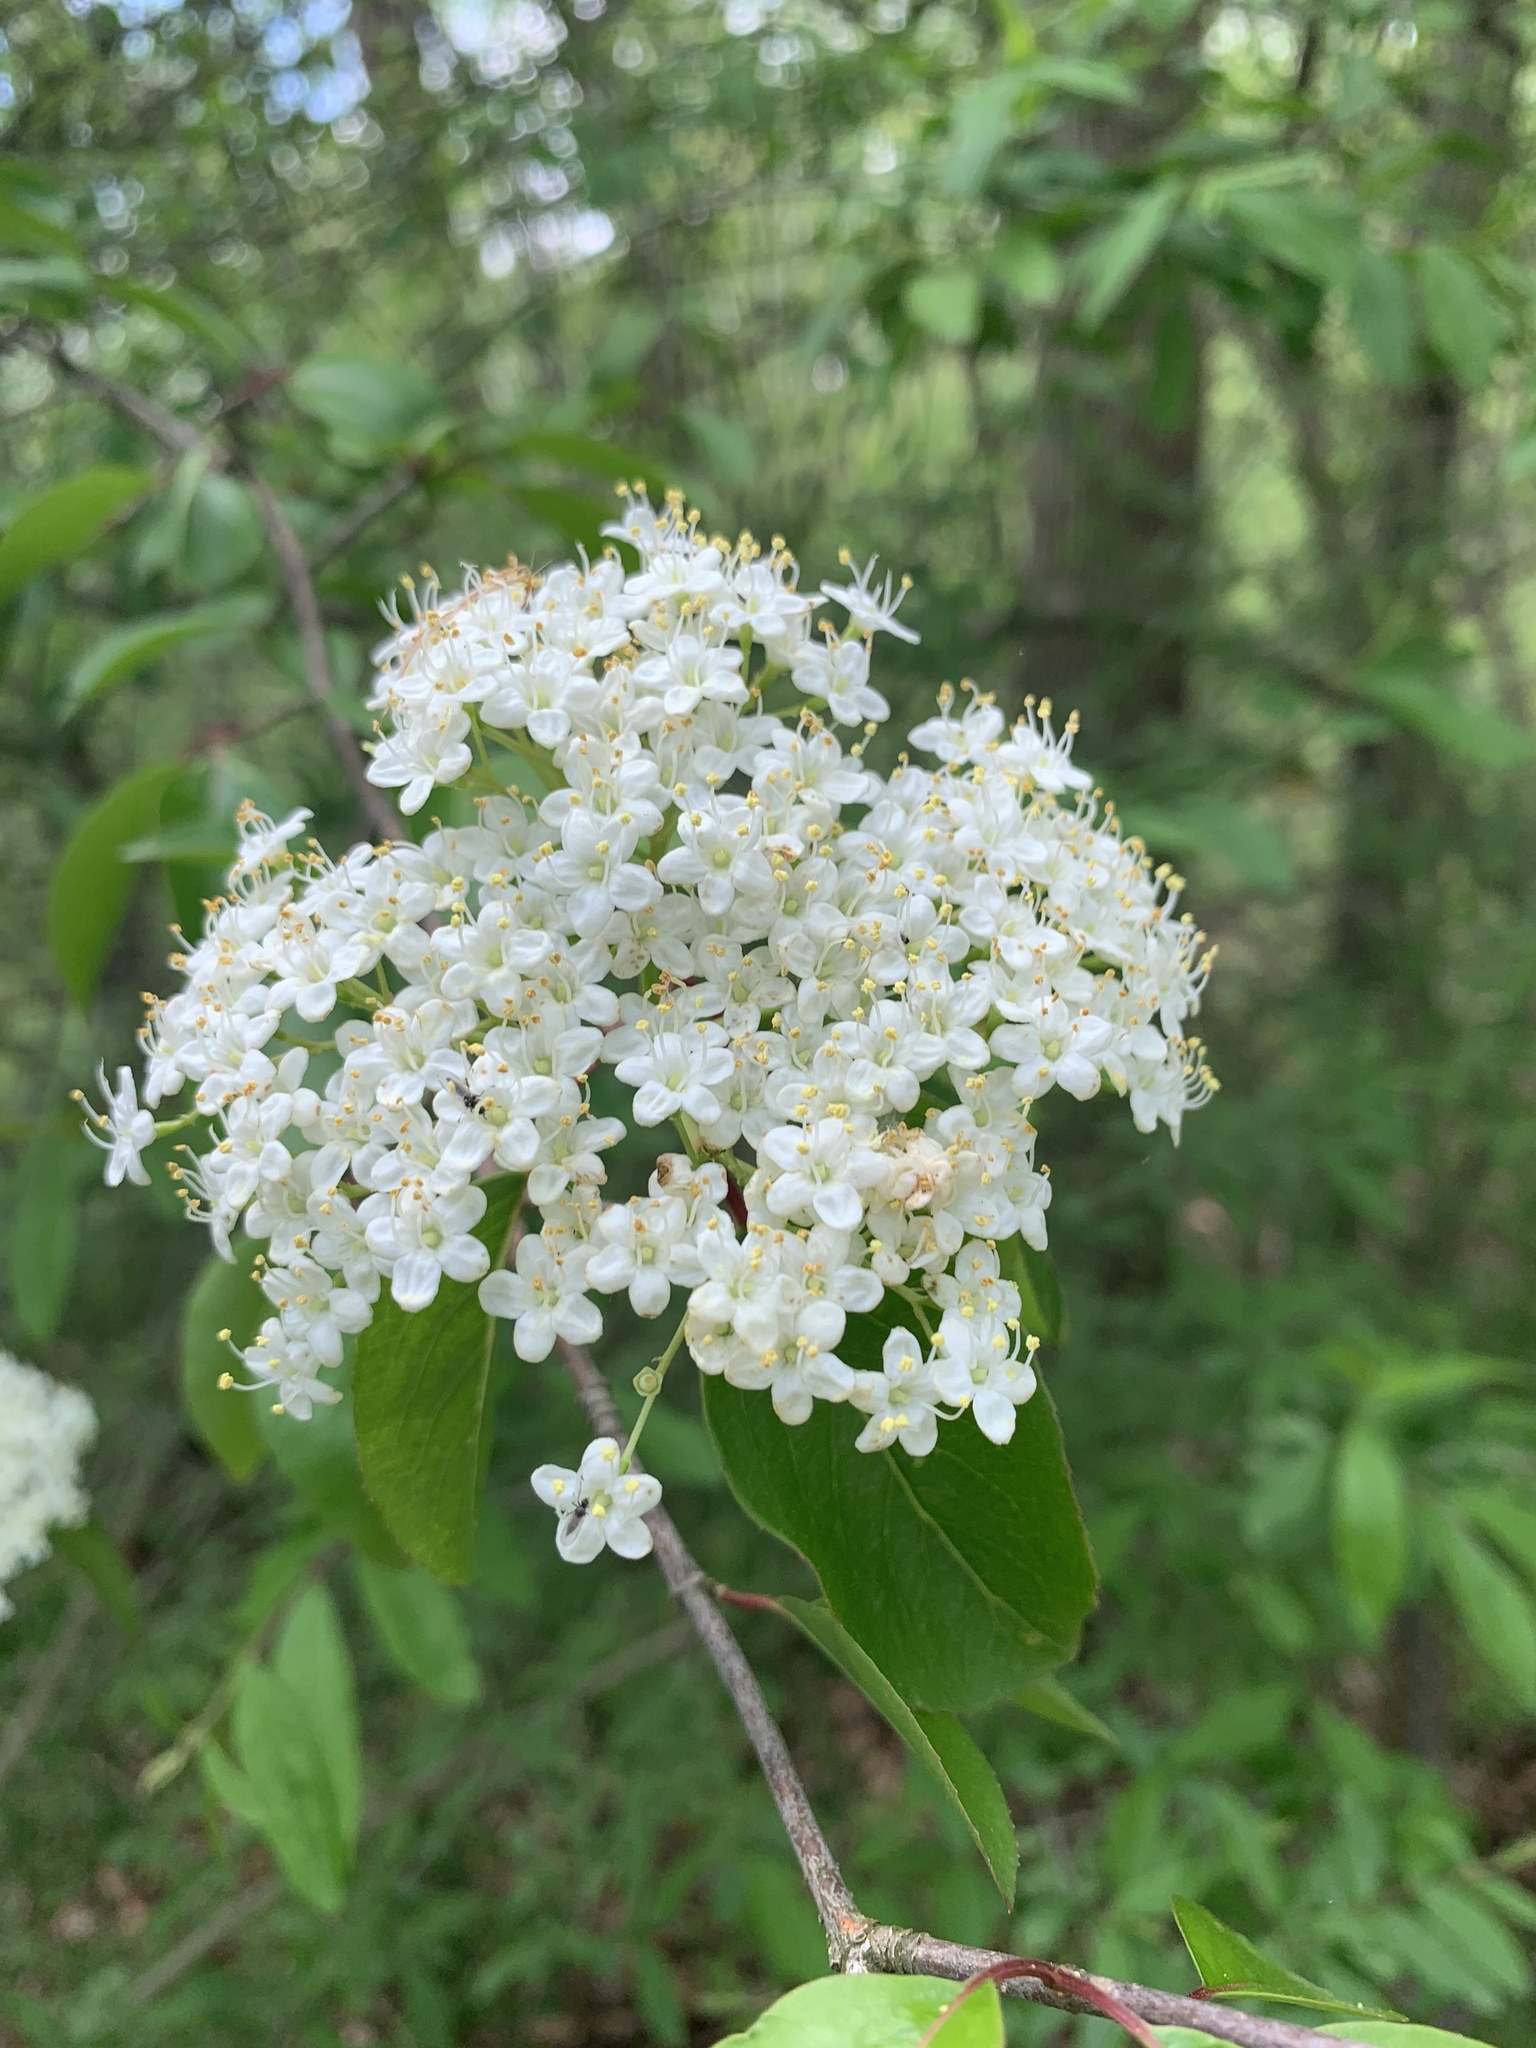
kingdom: Plantae
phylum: Tracheophyta
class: Magnoliopsida
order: Dipsacales
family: Viburnaceae
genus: Viburnum
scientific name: Viburnum prunifolium
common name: Black haw
